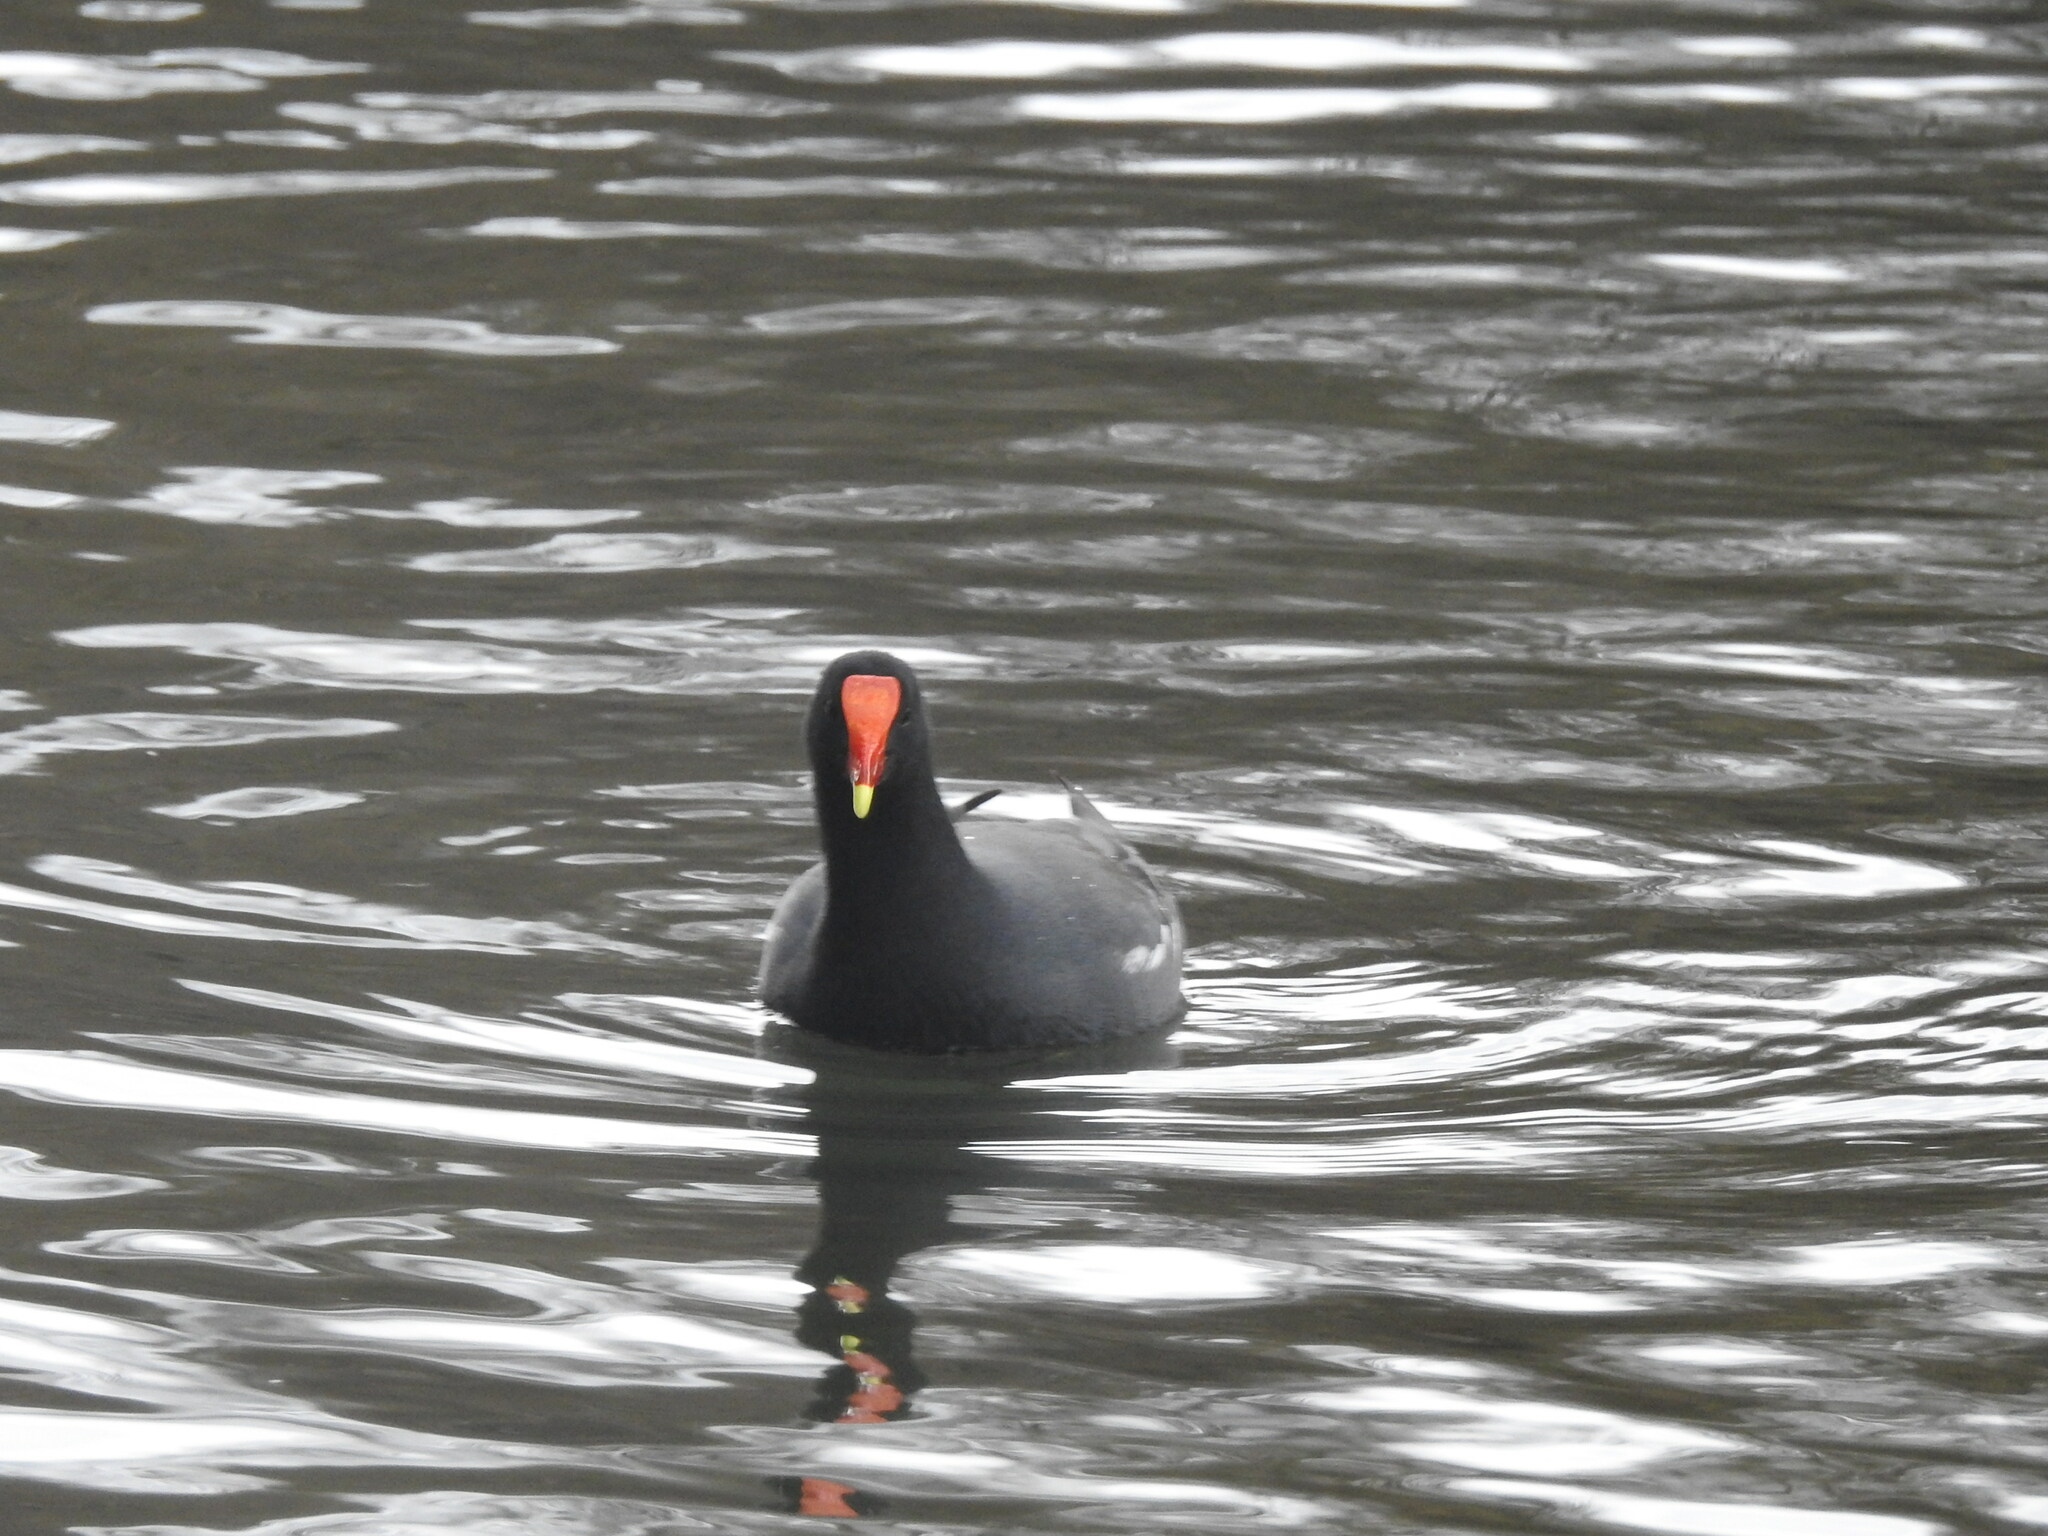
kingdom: Animalia
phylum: Chordata
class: Aves
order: Gruiformes
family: Rallidae
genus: Gallinula
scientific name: Gallinula chloropus
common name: Common moorhen
